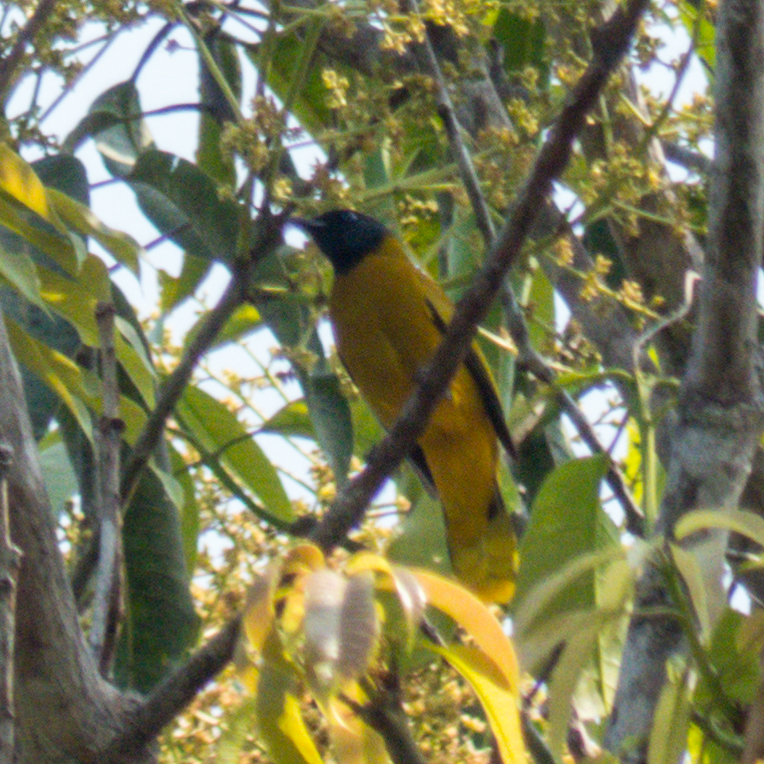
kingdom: Animalia
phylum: Chordata
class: Aves
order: Passeriformes
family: Pycnonotidae
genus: Microtarsus
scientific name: Microtarsus
